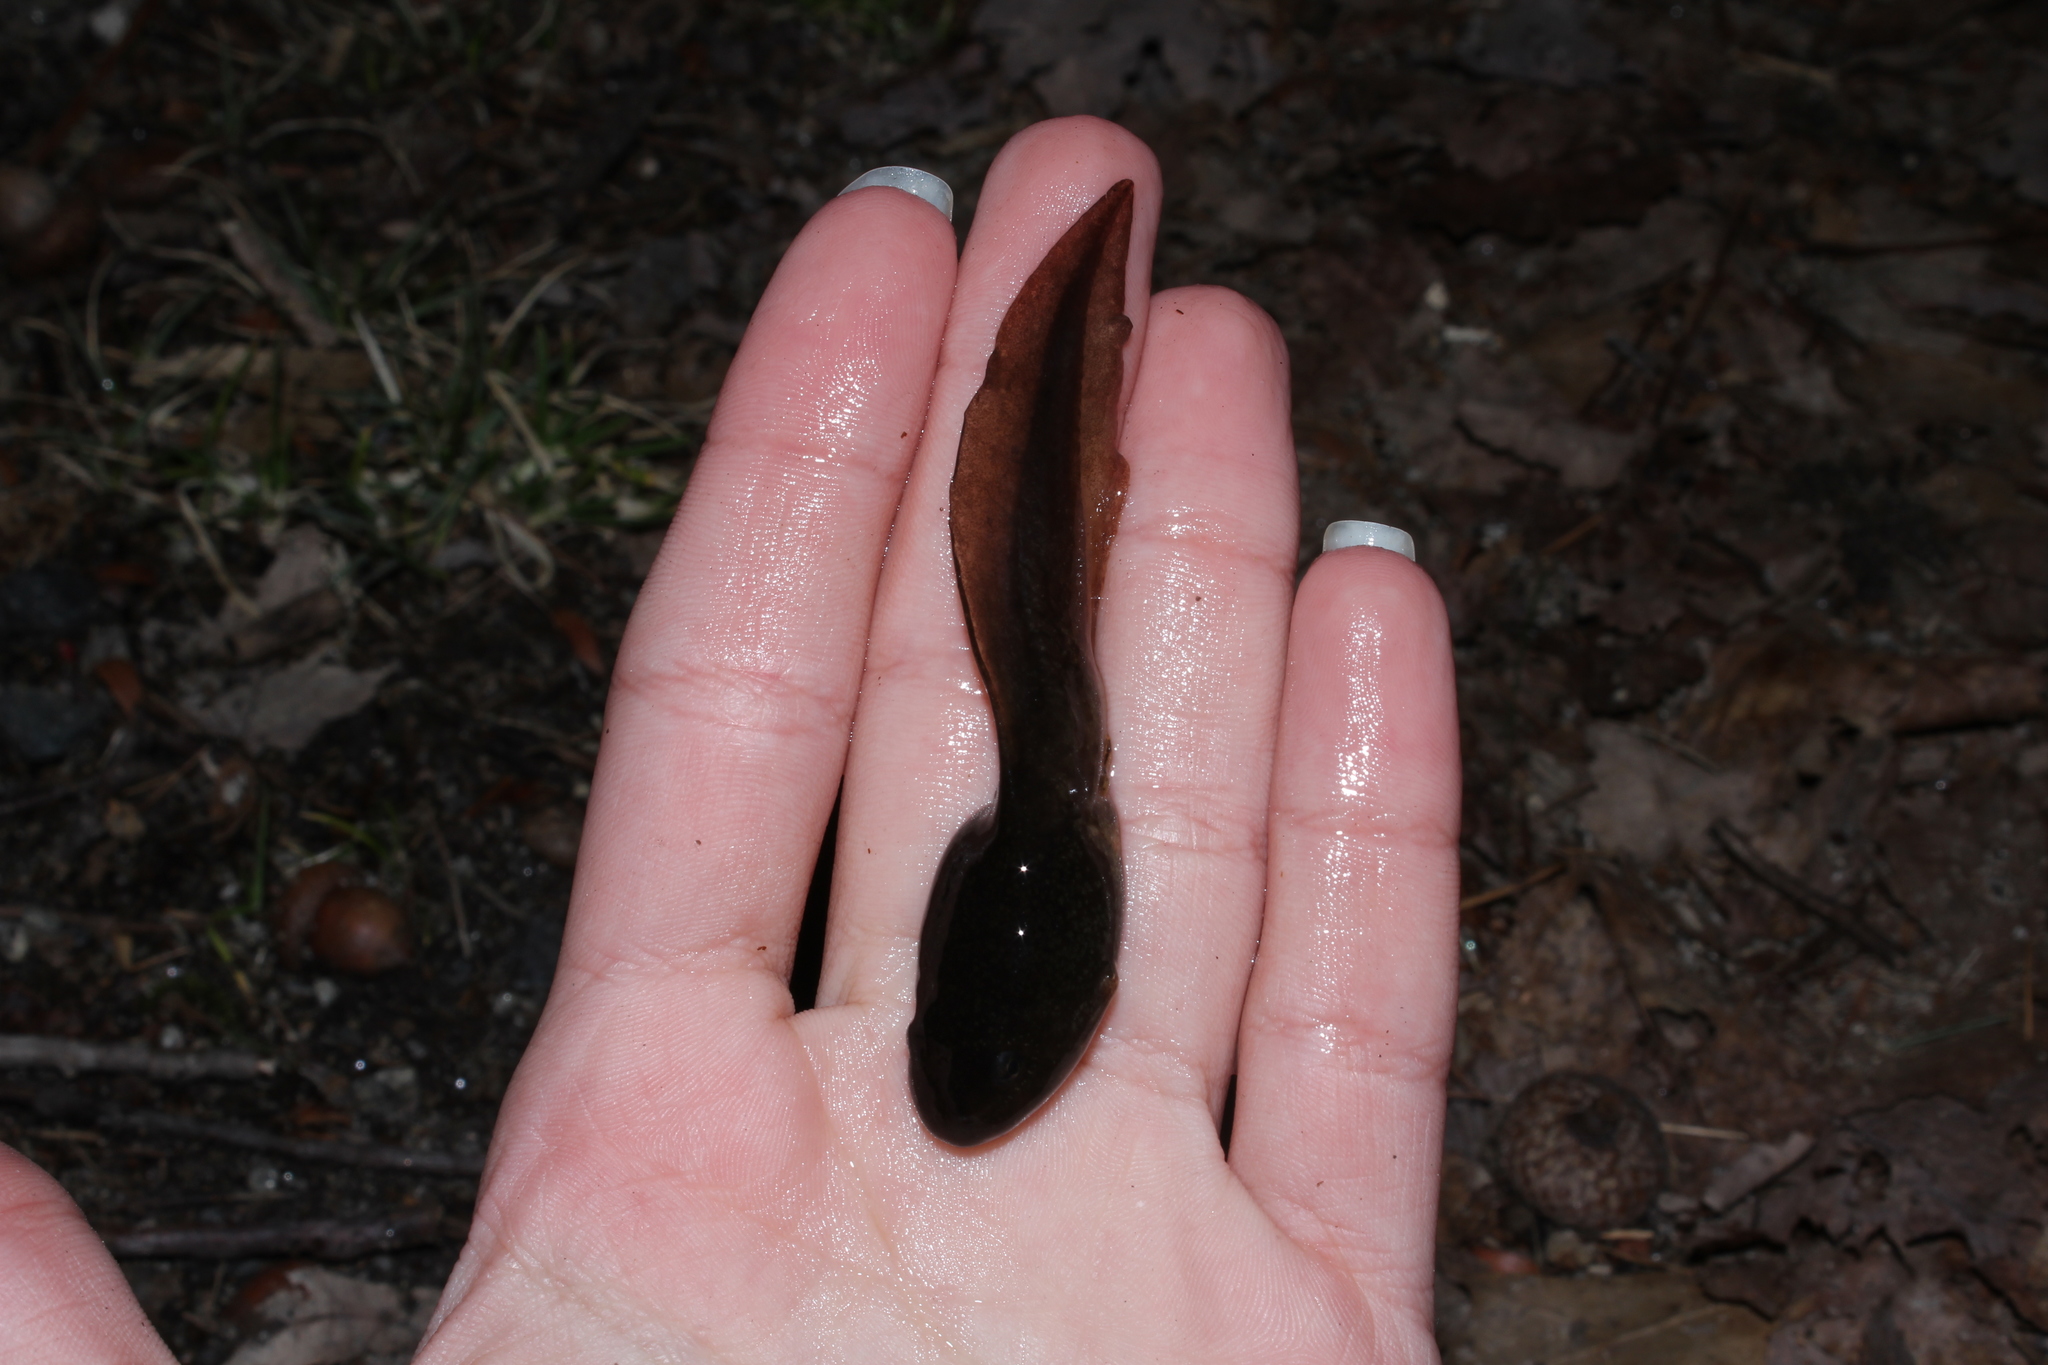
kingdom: Animalia
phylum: Chordata
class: Amphibia
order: Anura
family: Ranidae
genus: Lithobates
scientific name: Lithobates catesbeianus
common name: American bullfrog
